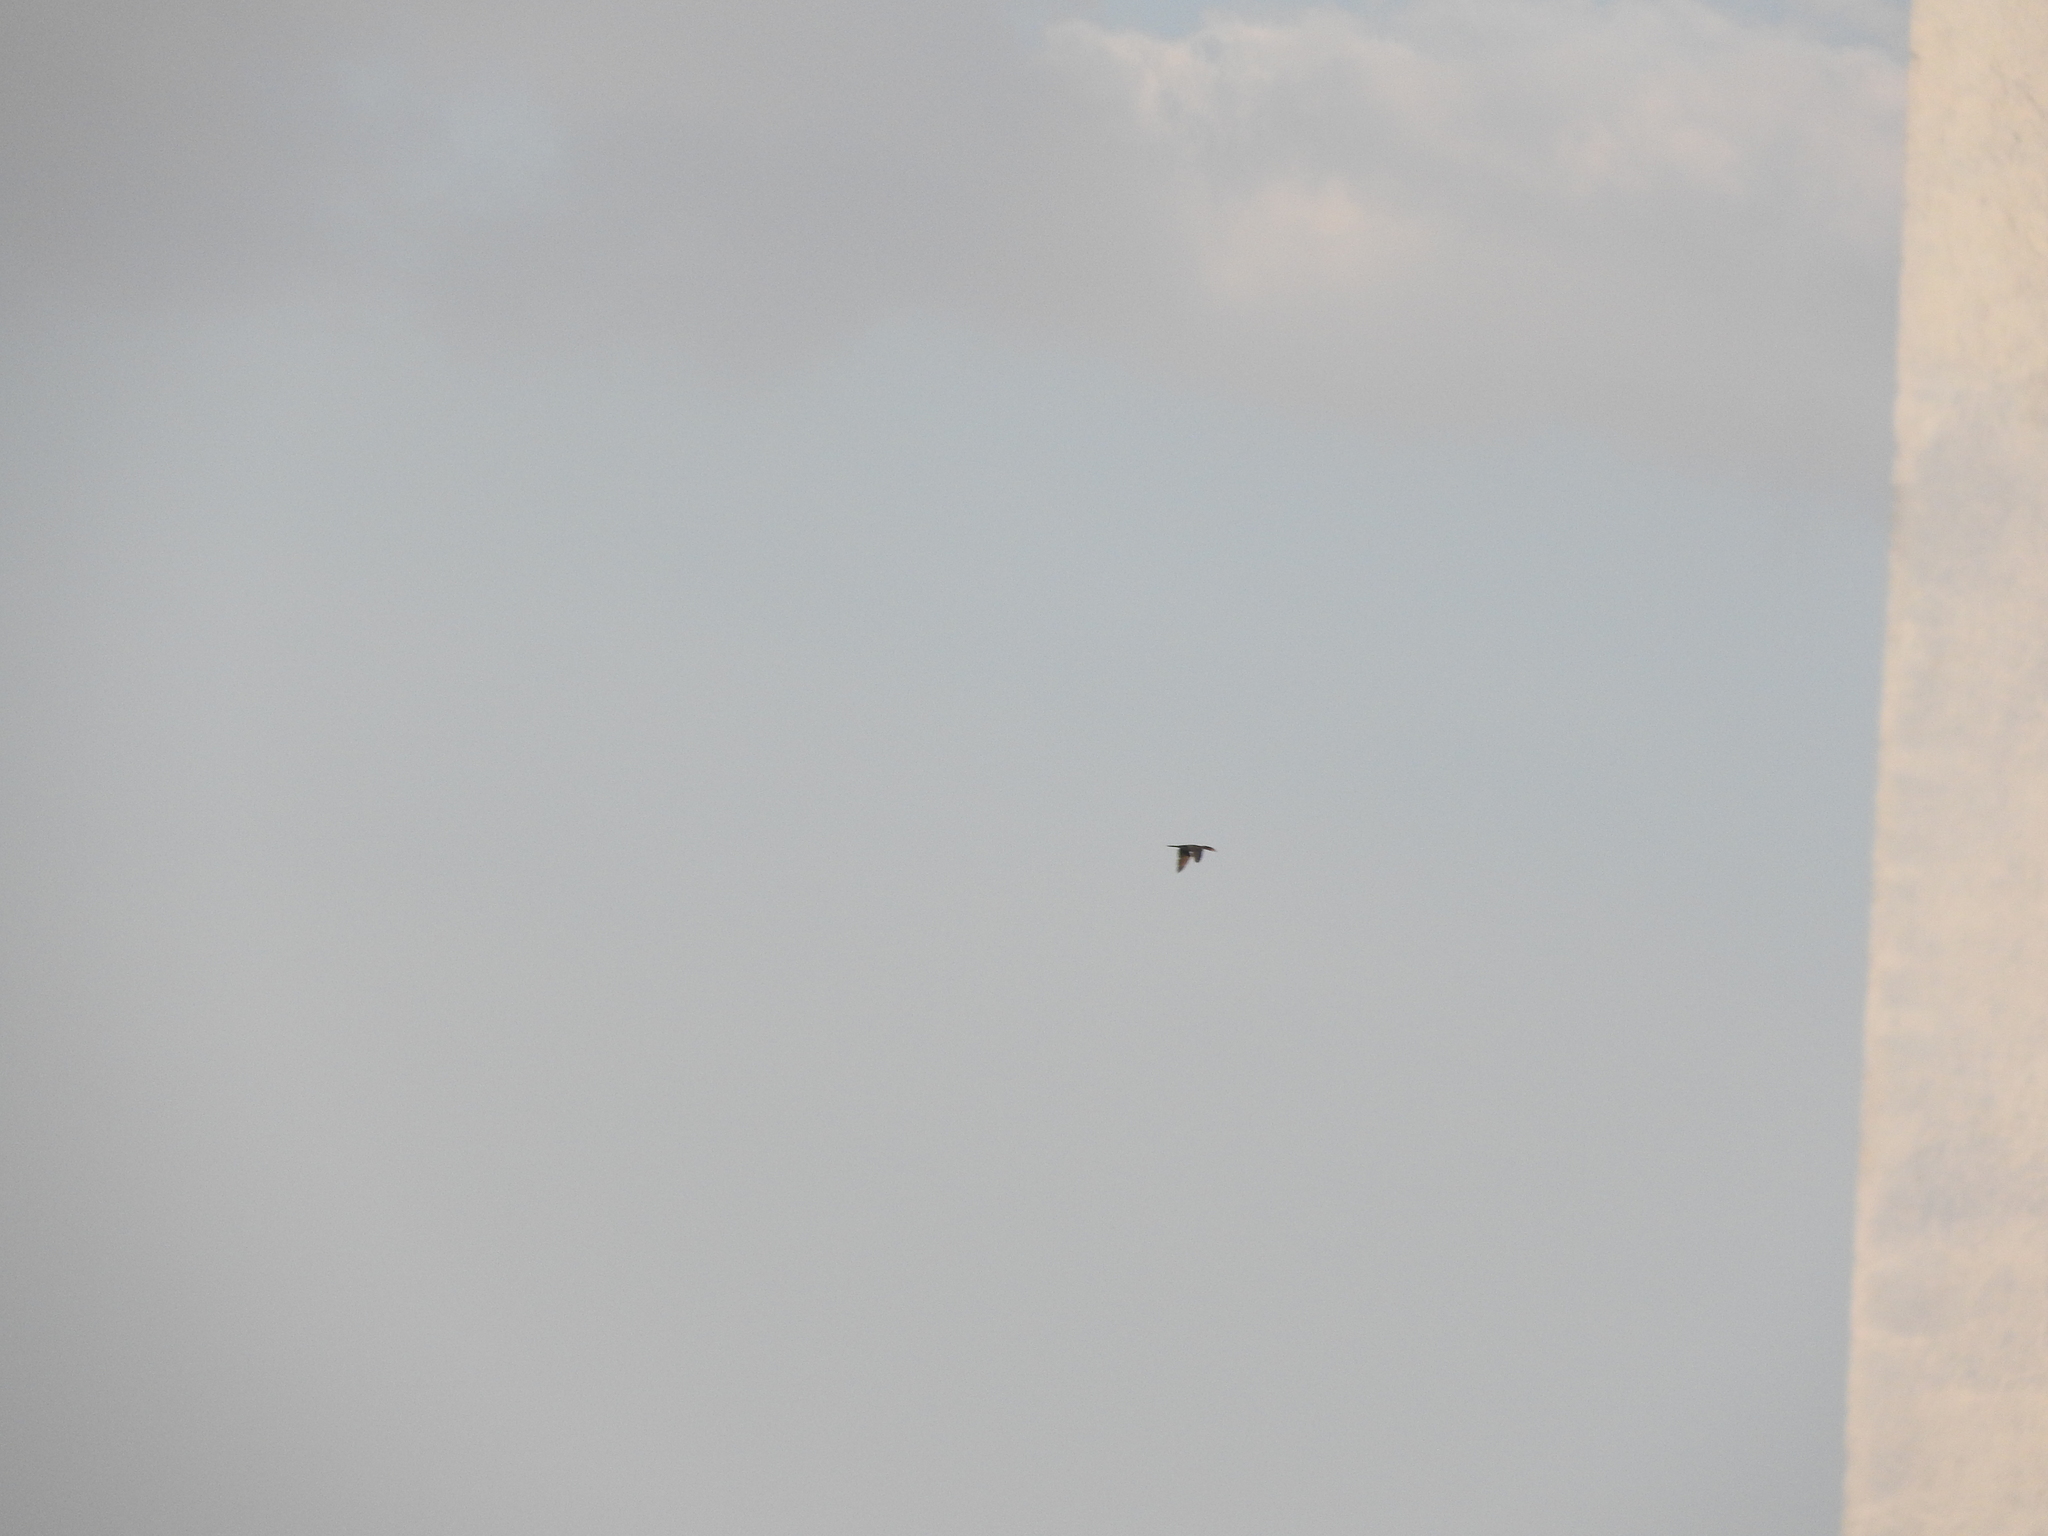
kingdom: Animalia
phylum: Chordata
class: Aves
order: Suliformes
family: Phalacrocoracidae
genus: Phalacrocorax
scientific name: Phalacrocorax brasilianus
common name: Neotropic cormorant
